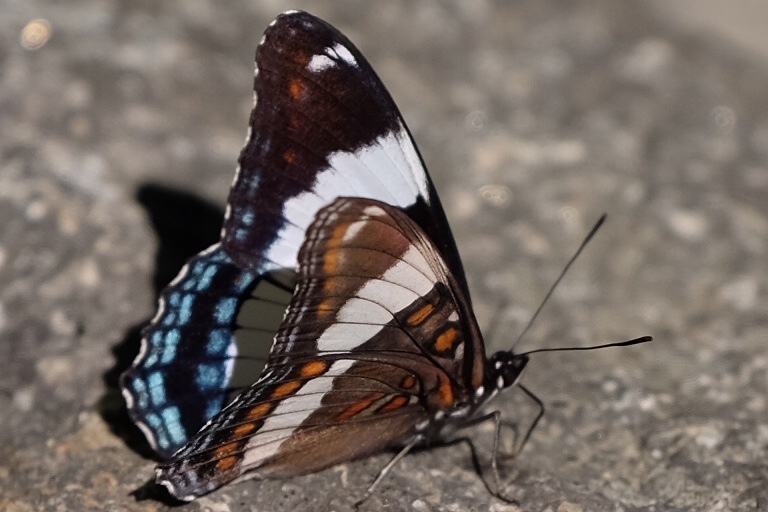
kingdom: Animalia
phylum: Arthropoda
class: Insecta
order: Lepidoptera
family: Nymphalidae
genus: Limenitis
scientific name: Limenitis arthemis
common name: Red-spotted admiral
